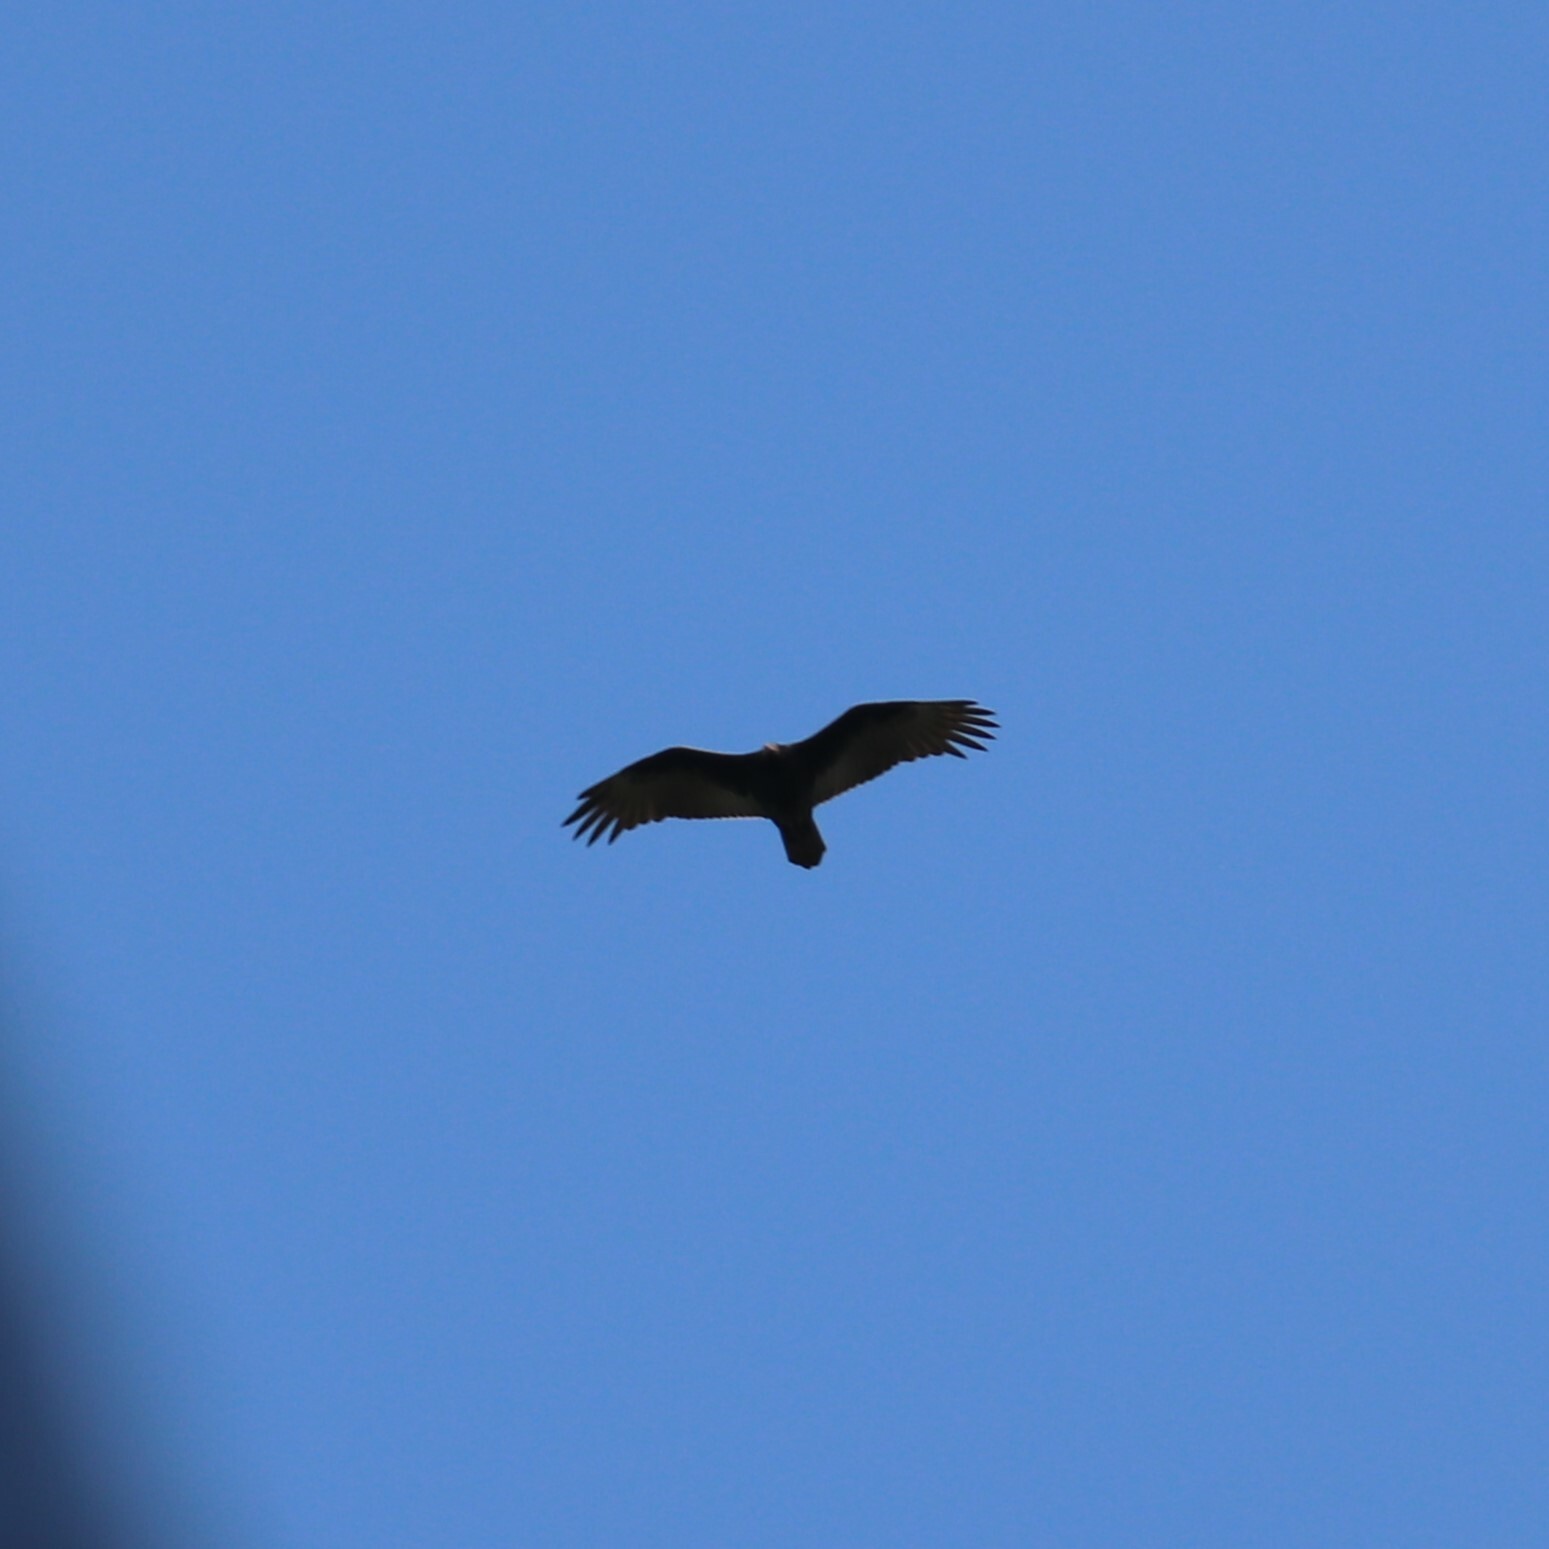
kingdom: Animalia
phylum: Chordata
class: Aves
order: Accipitriformes
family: Cathartidae
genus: Cathartes
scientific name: Cathartes aura
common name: Turkey vulture
